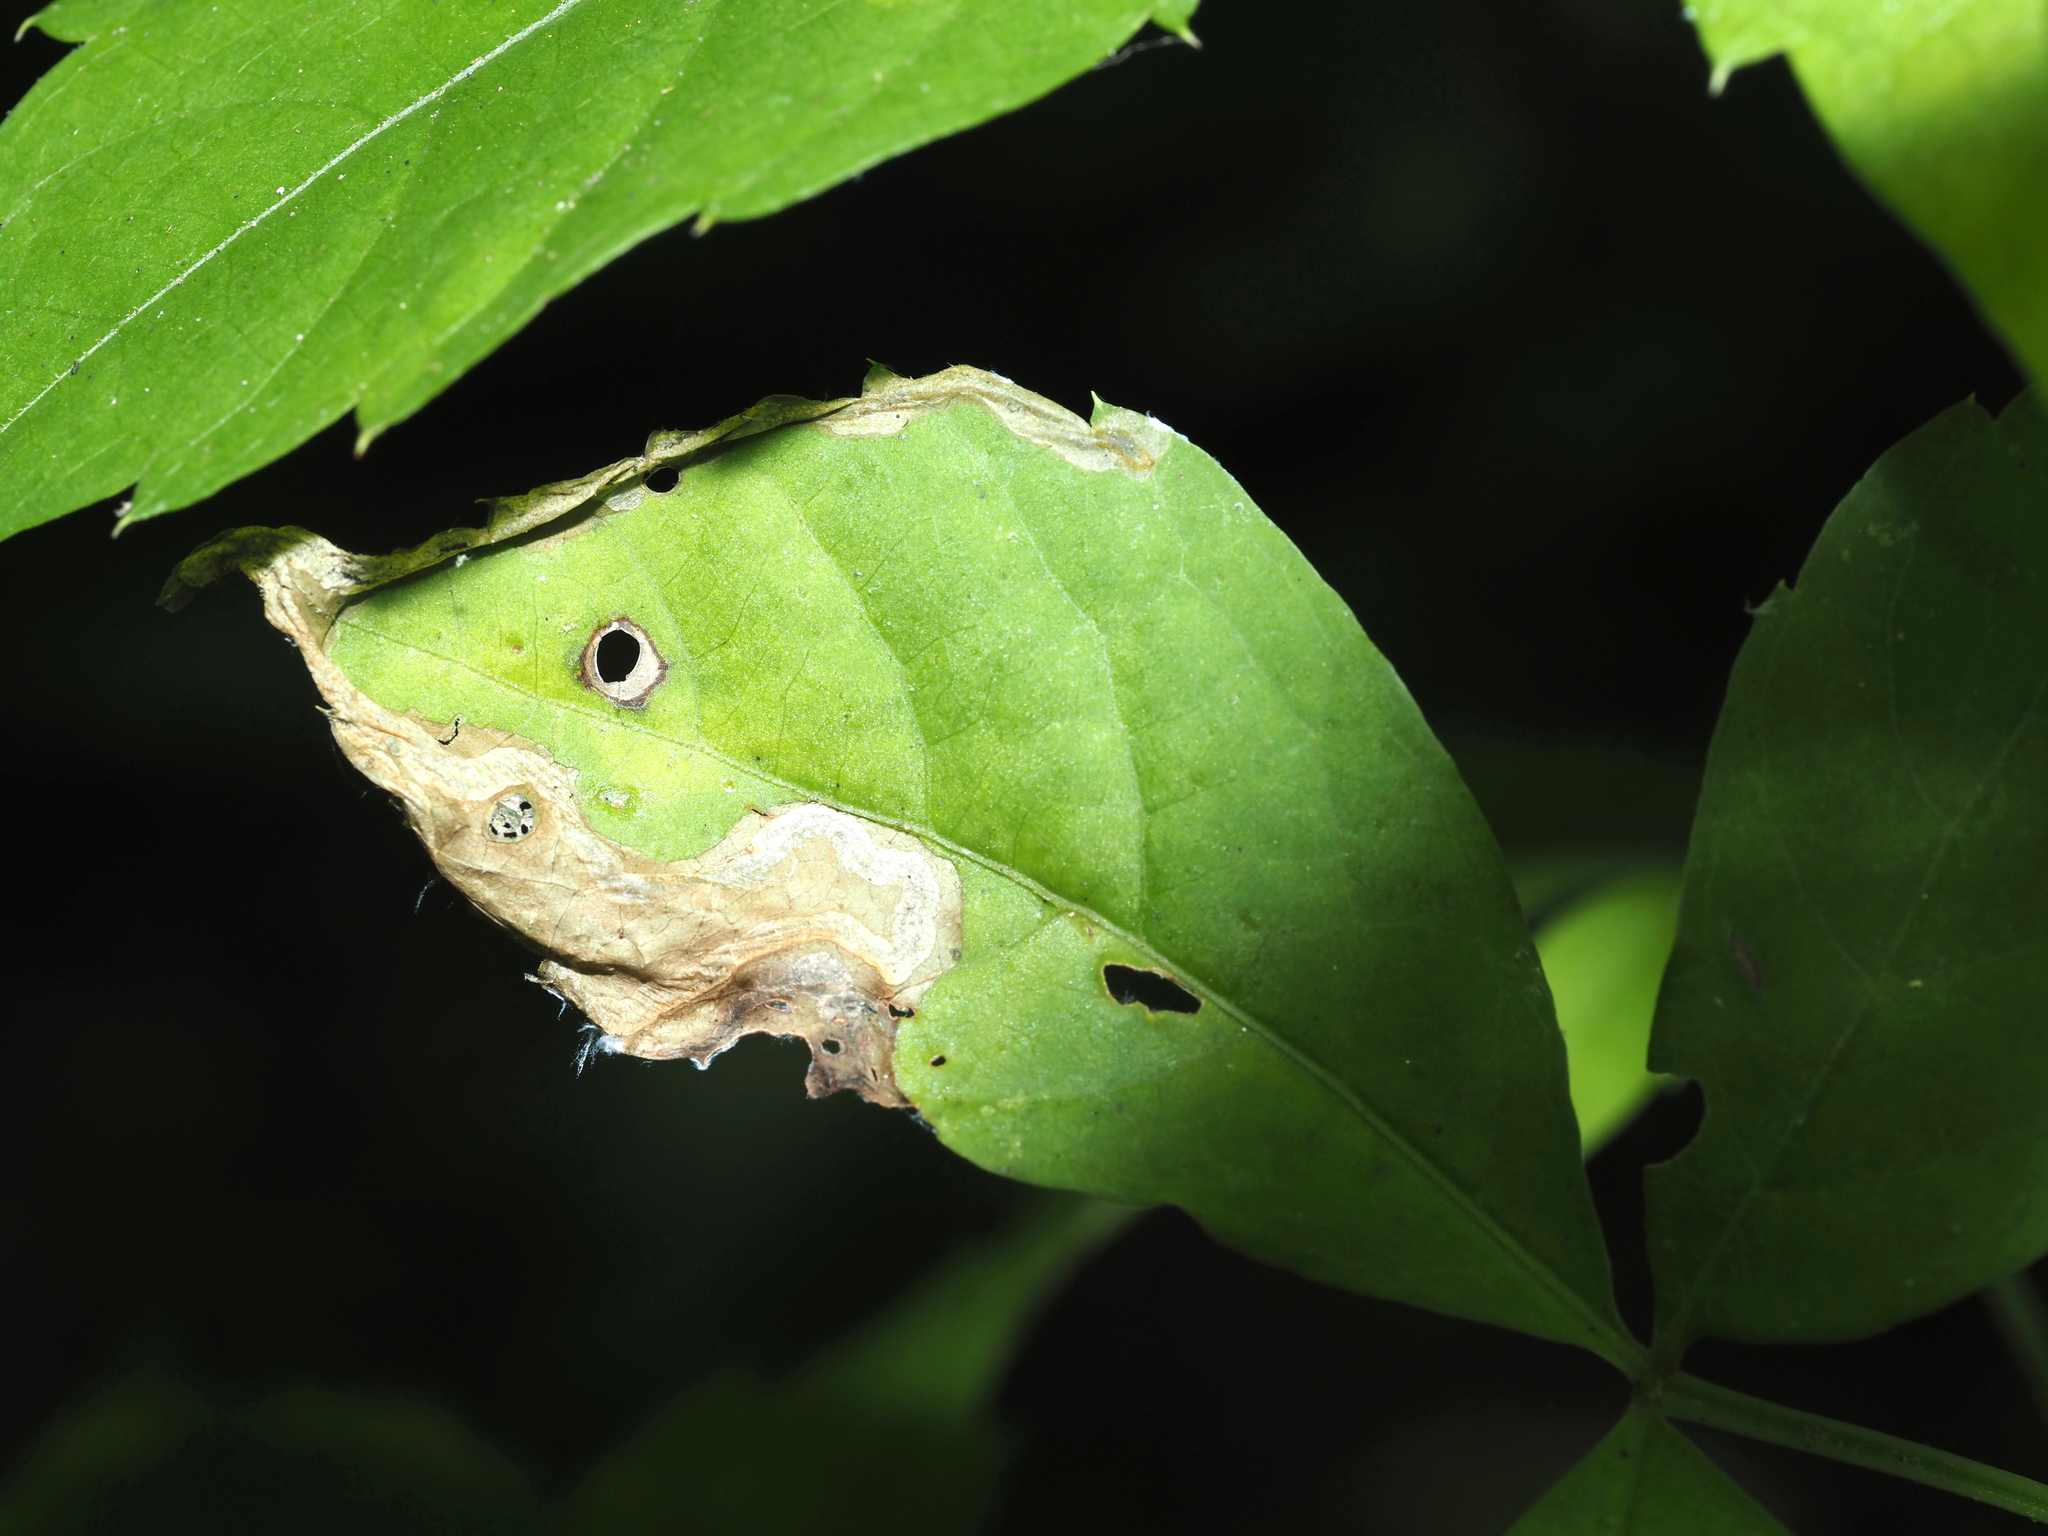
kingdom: Animalia
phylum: Arthropoda
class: Insecta
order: Coleoptera
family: Curculionidae
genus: Orchestomerus
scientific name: Orchestomerus eisemani
